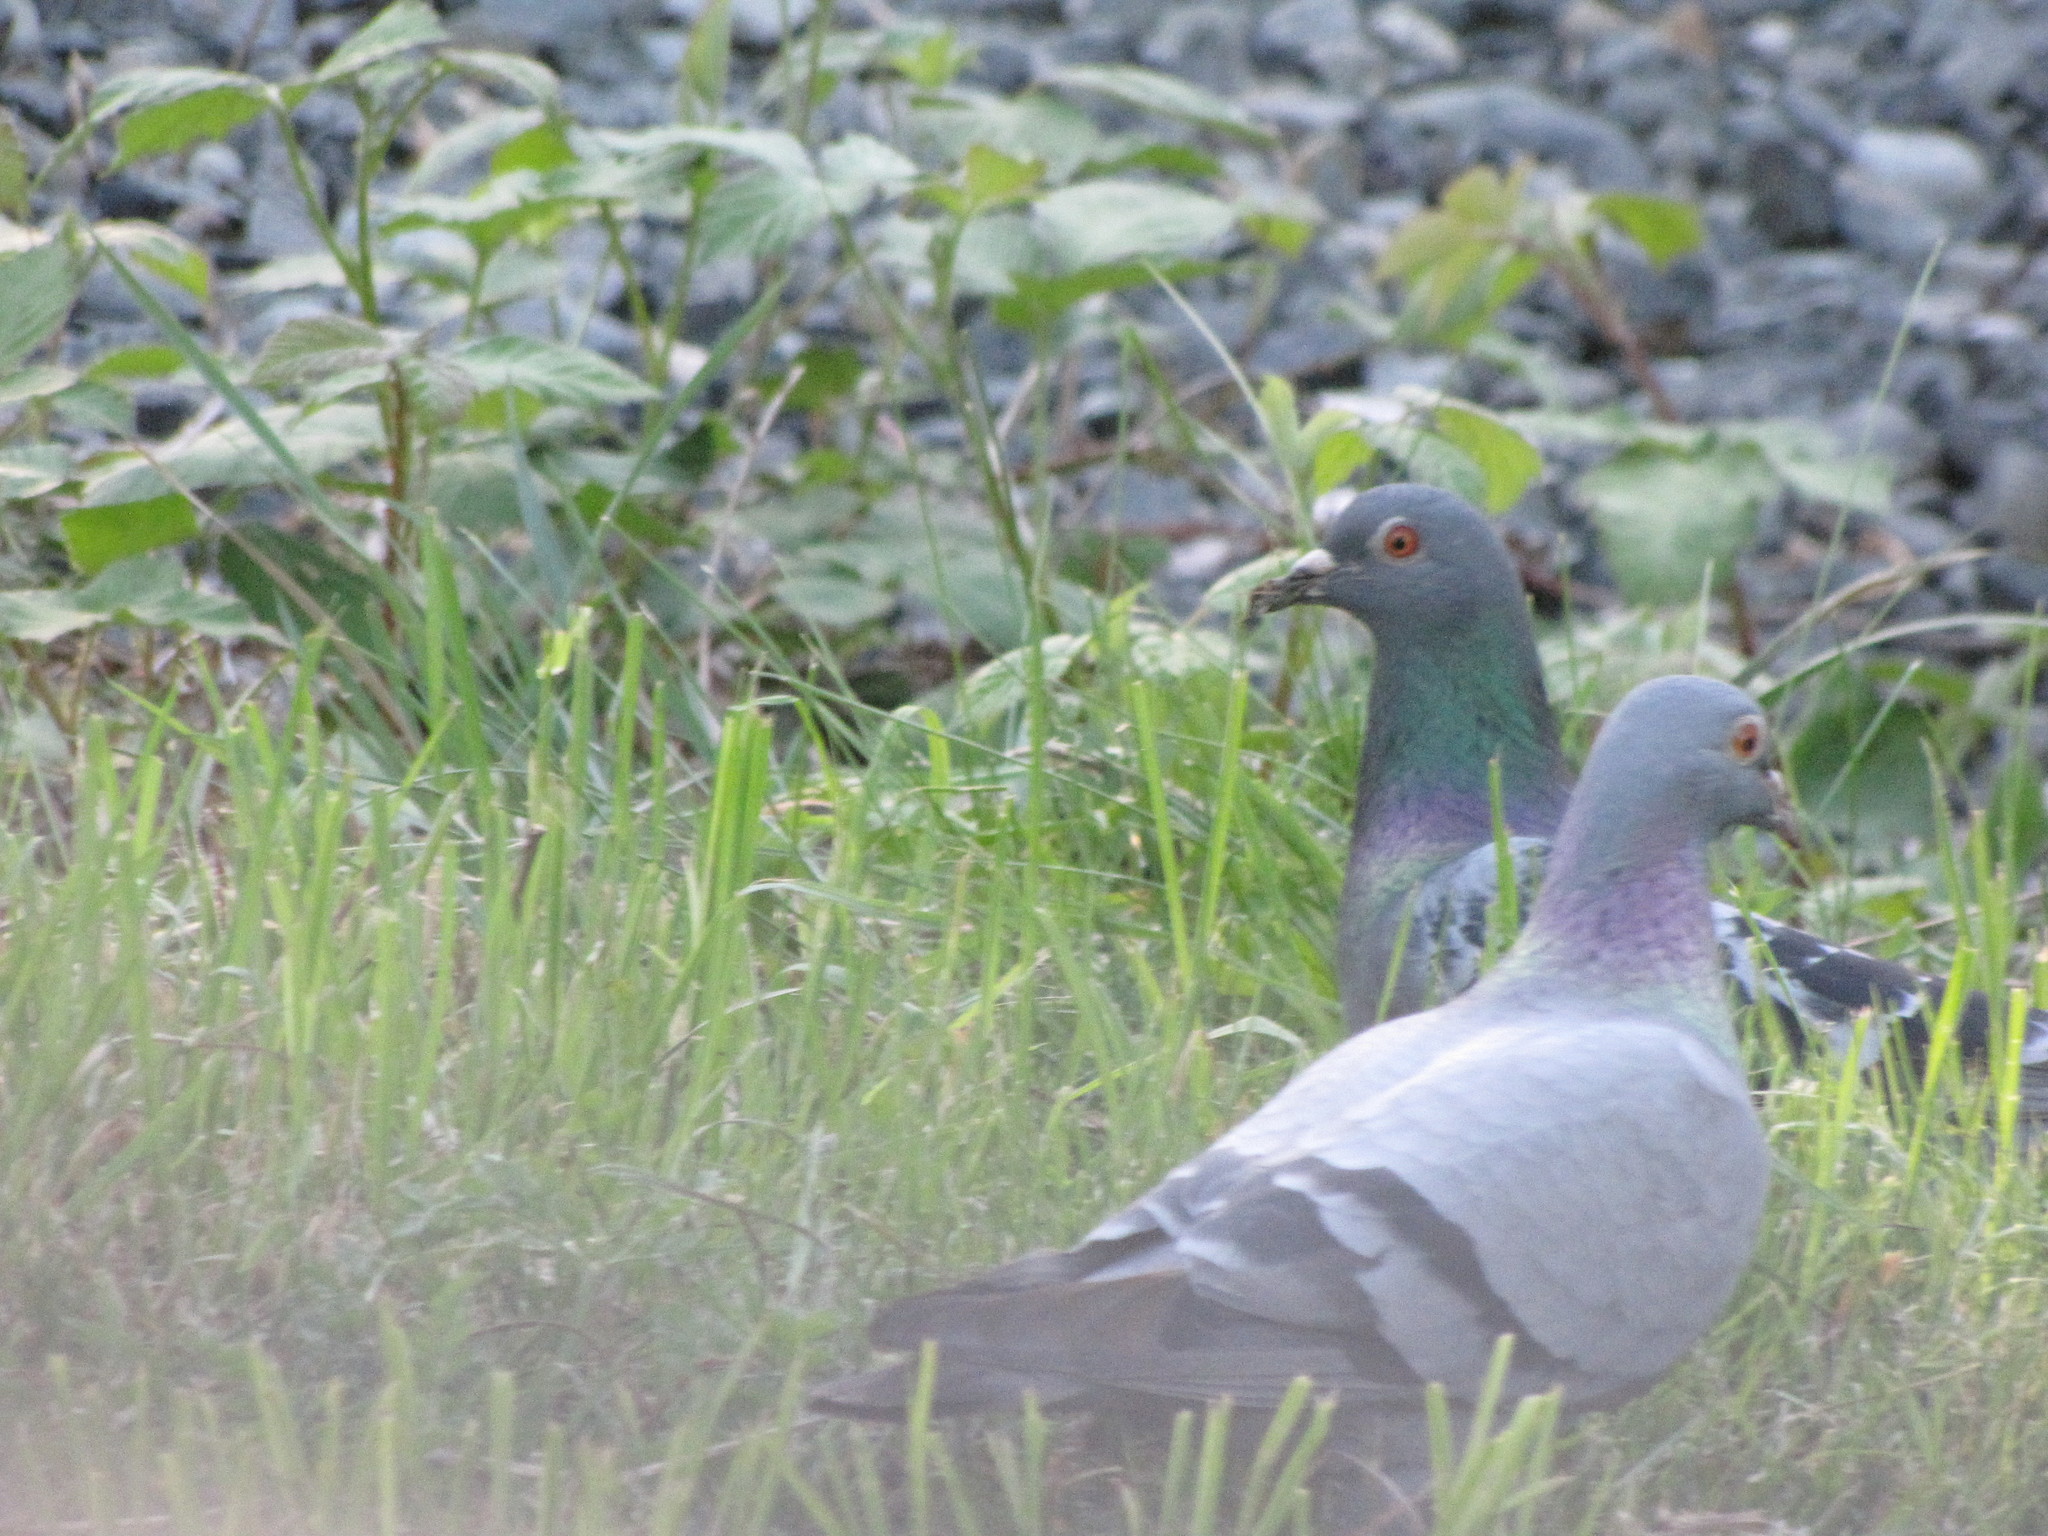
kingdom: Animalia
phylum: Chordata
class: Aves
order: Columbiformes
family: Columbidae
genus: Columba
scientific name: Columba livia
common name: Rock pigeon
